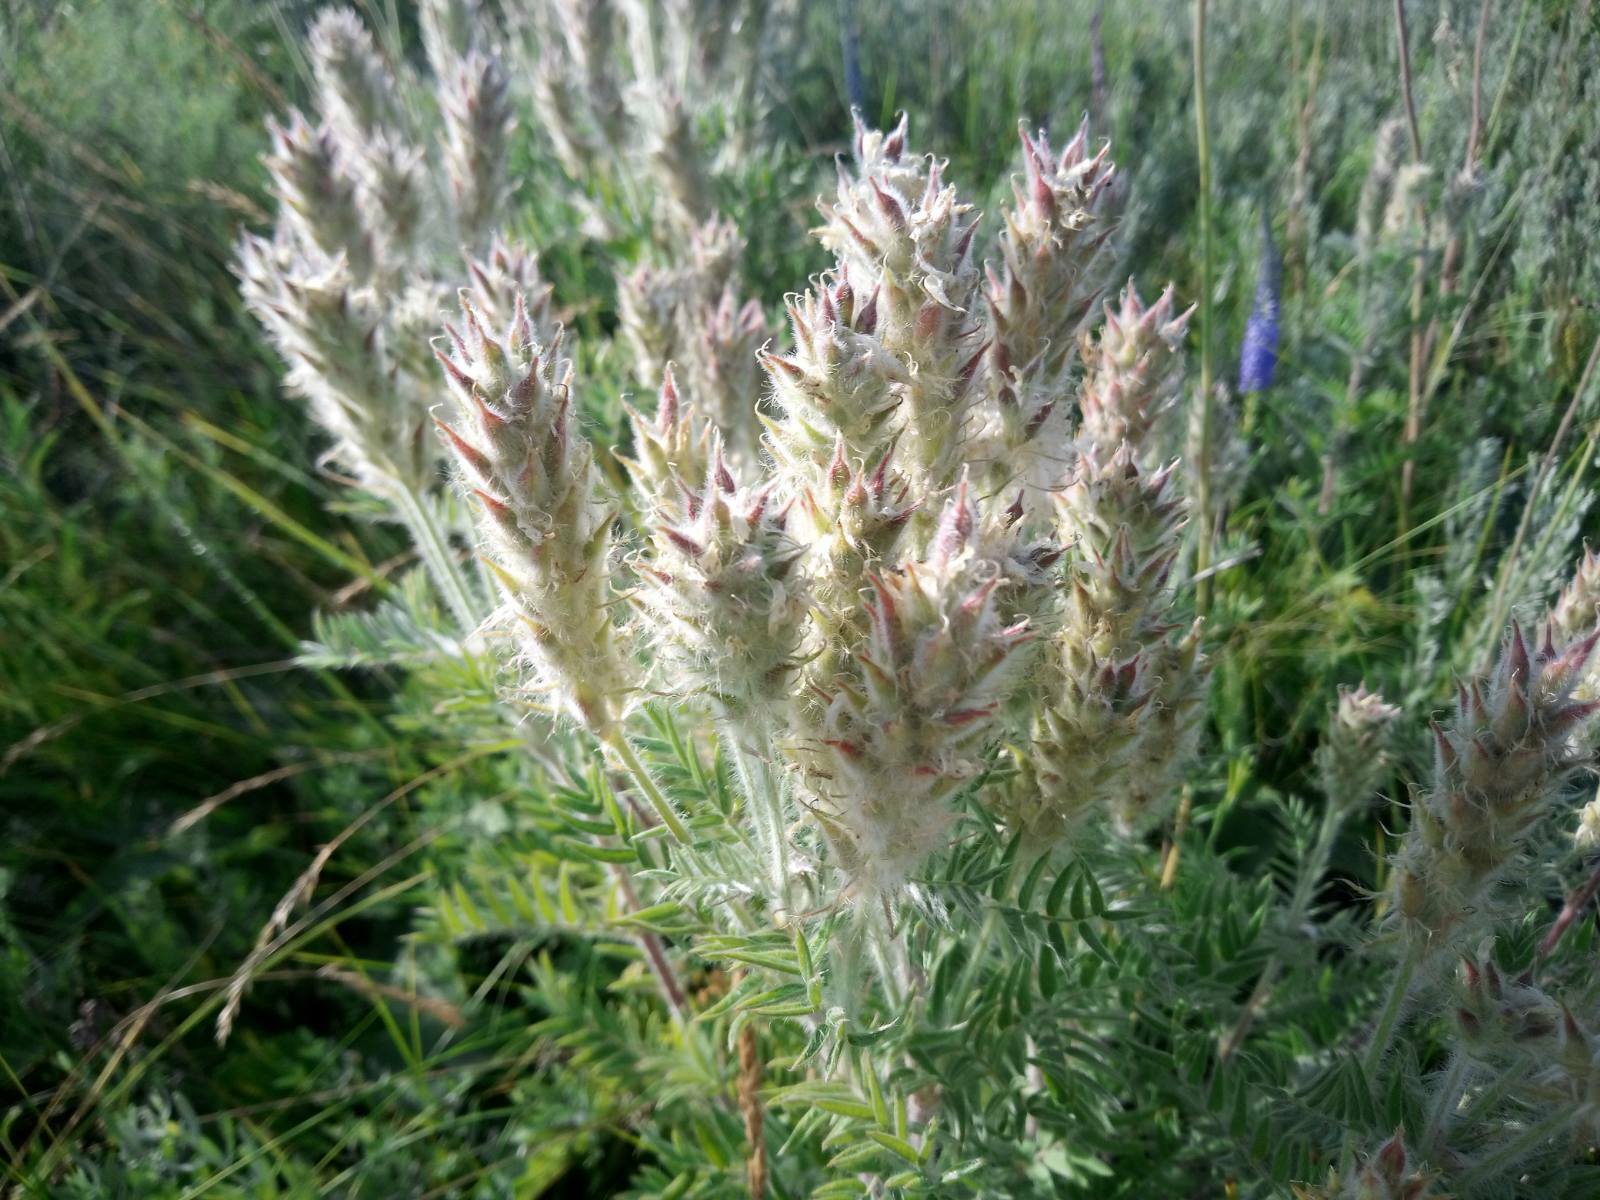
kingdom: Plantae
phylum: Tracheophyta
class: Magnoliopsida
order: Fabales
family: Fabaceae
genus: Oxytropis
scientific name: Oxytropis pilosa
